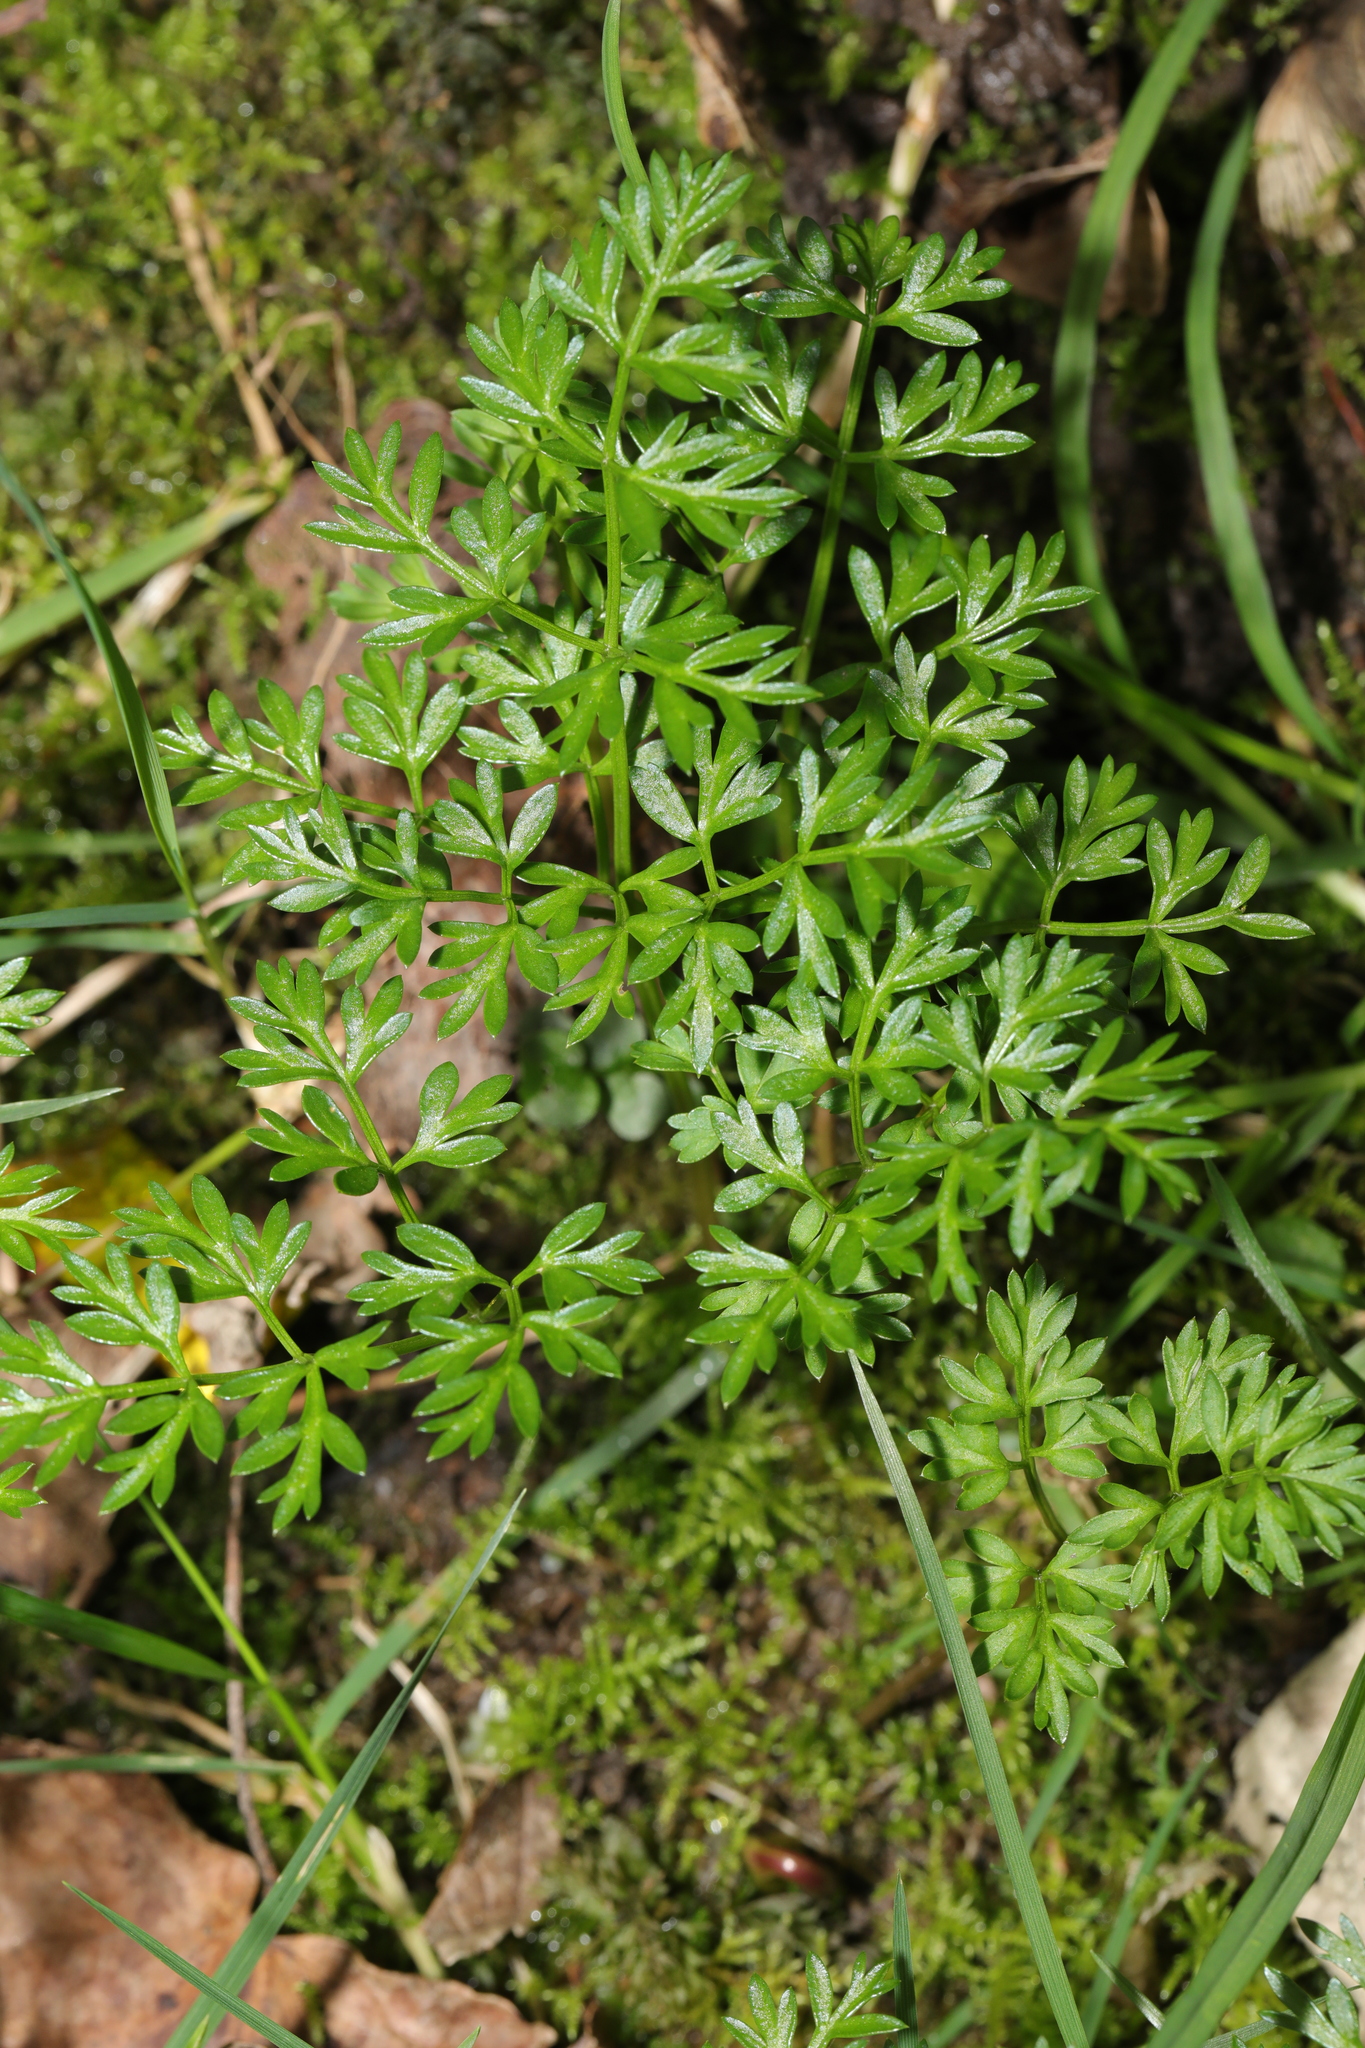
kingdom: Plantae
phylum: Tracheophyta
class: Magnoliopsida
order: Apiales
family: Apiaceae
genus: Conopodium
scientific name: Conopodium majus
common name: Pignut
